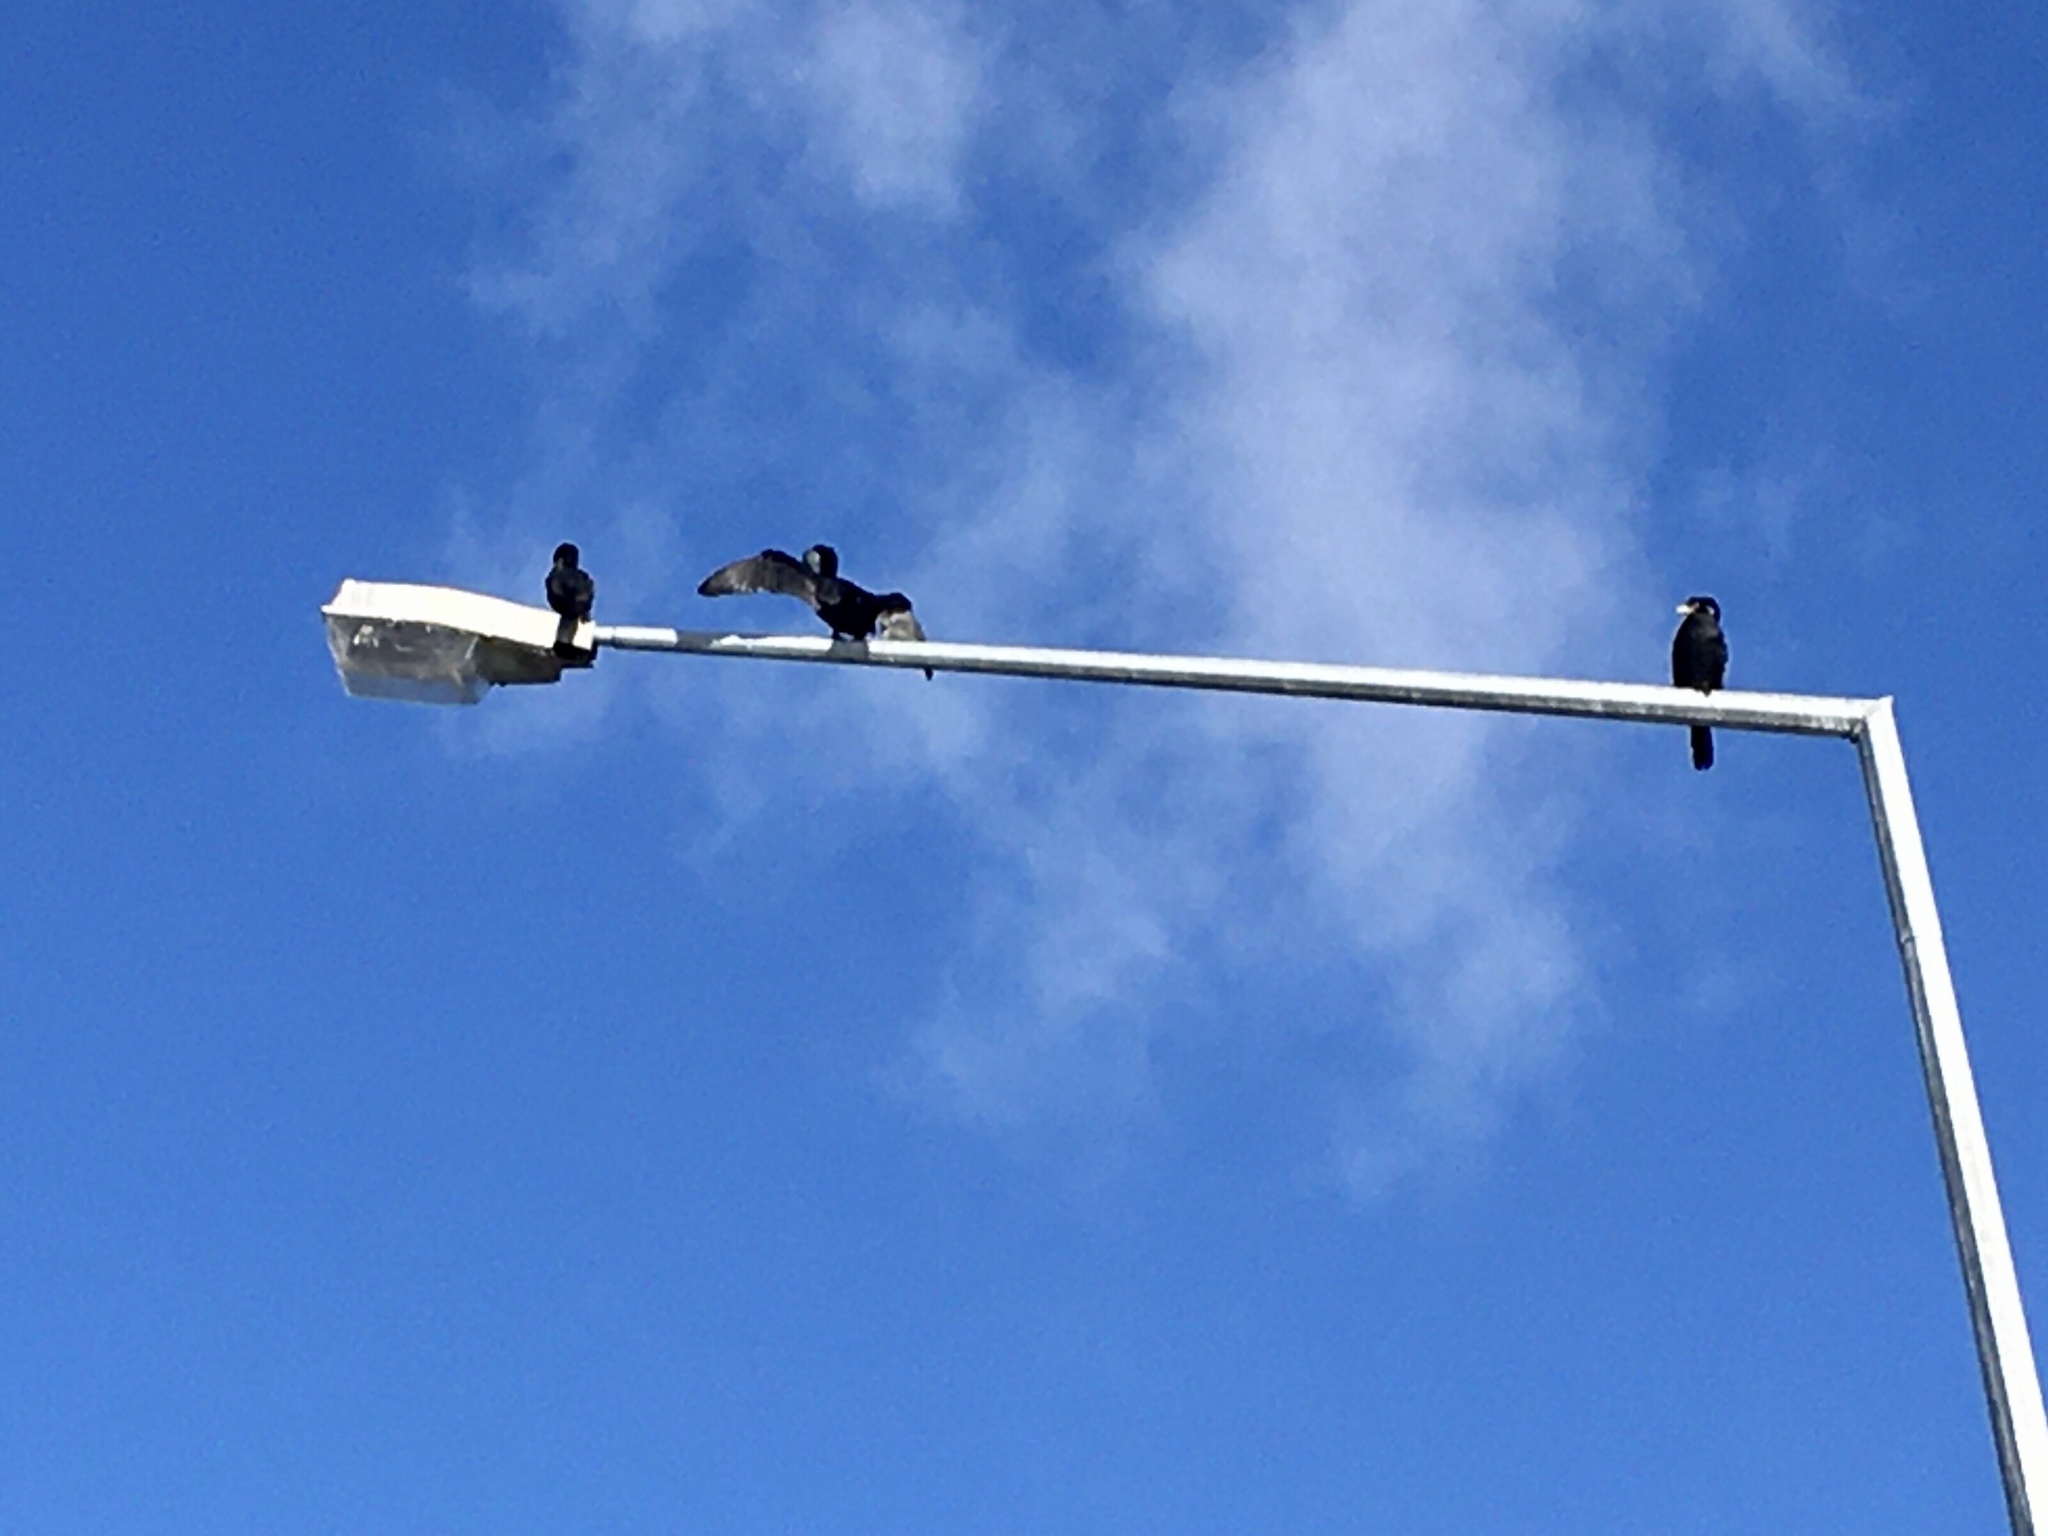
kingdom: Animalia
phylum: Chordata
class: Aves
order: Suliformes
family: Phalacrocoracidae
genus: Microcarbo
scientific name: Microcarbo melanoleucos
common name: Little pied cormorant
